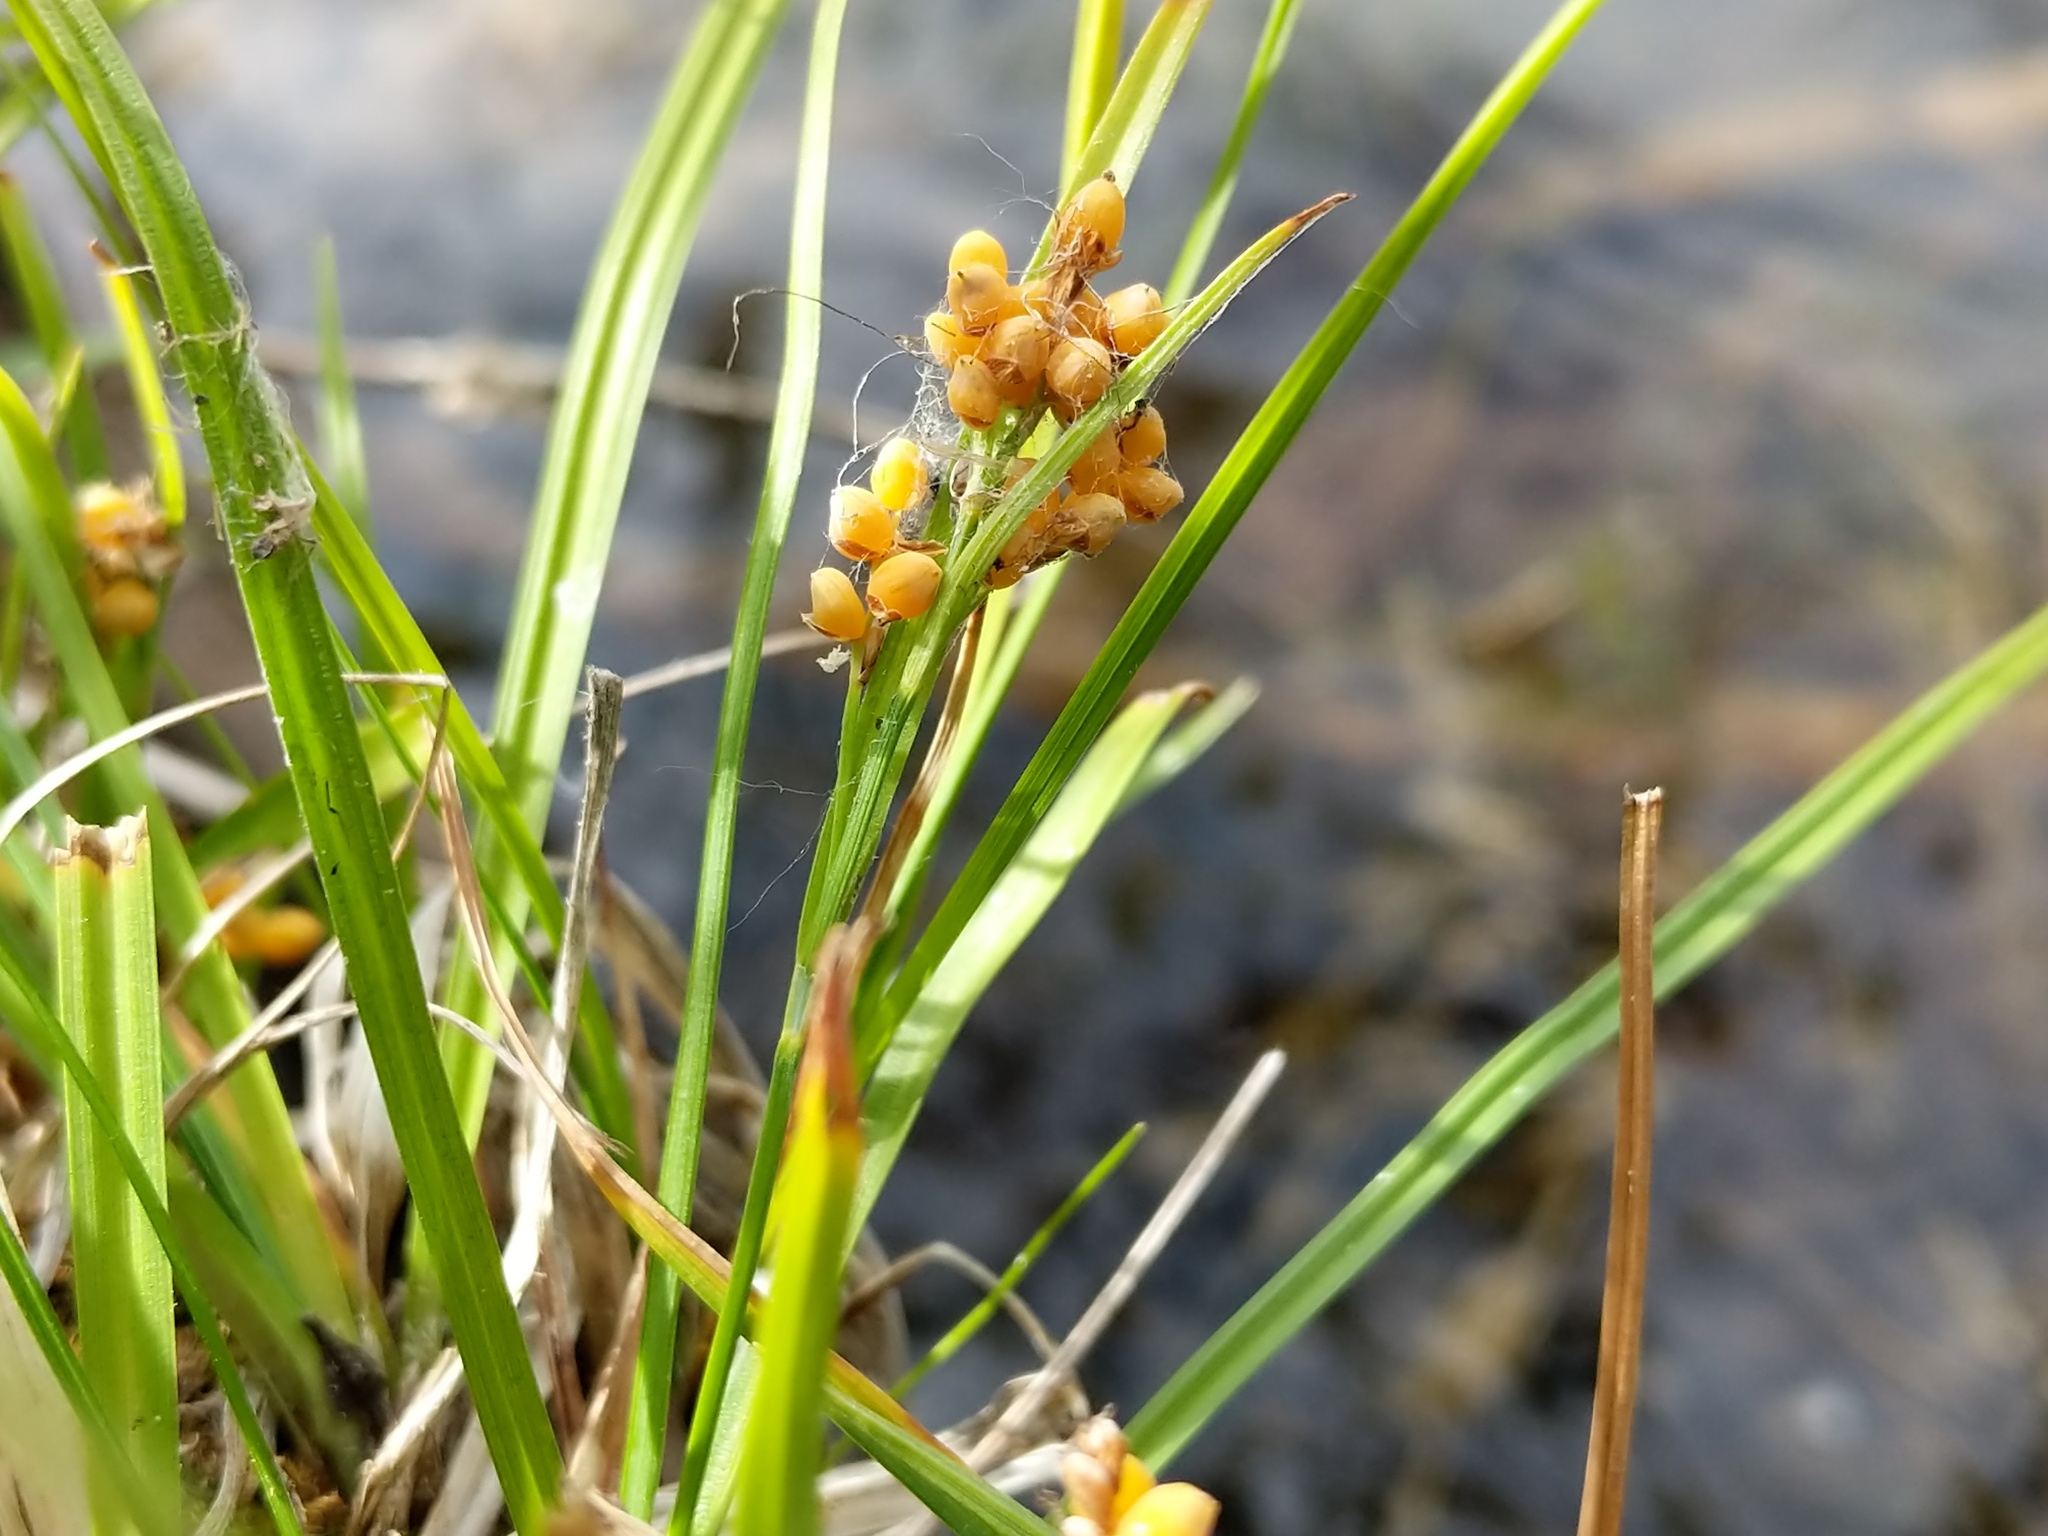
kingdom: Plantae
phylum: Tracheophyta
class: Liliopsida
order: Poales
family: Cyperaceae
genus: Carex
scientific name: Carex aurea
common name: Golden sedge
